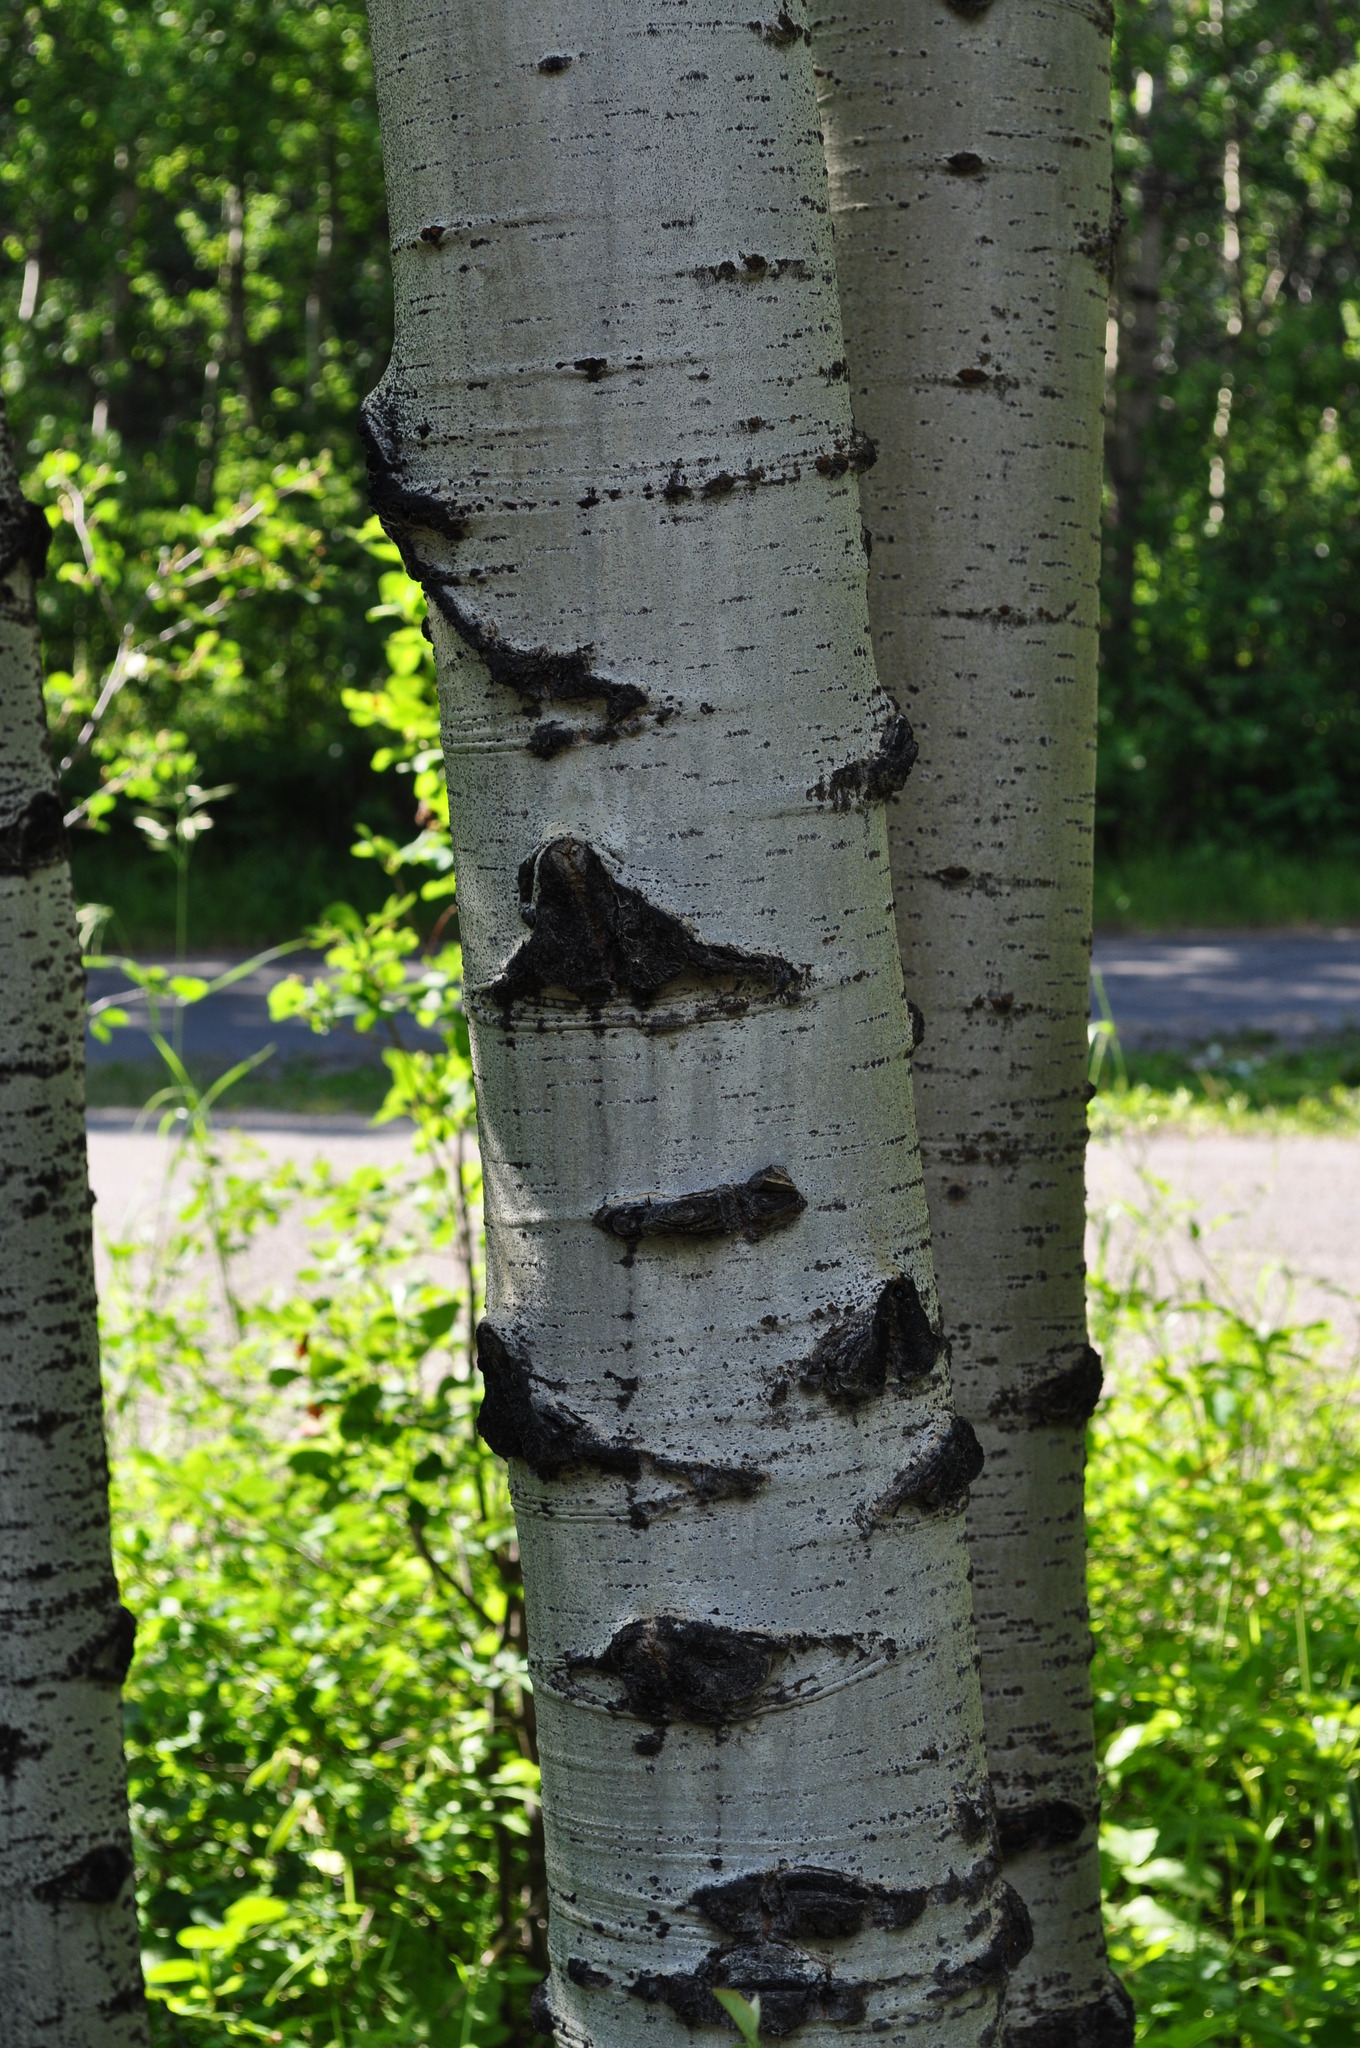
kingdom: Plantae
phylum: Tracheophyta
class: Magnoliopsida
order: Malpighiales
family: Salicaceae
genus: Populus
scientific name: Populus tremuloides
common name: Quaking aspen
